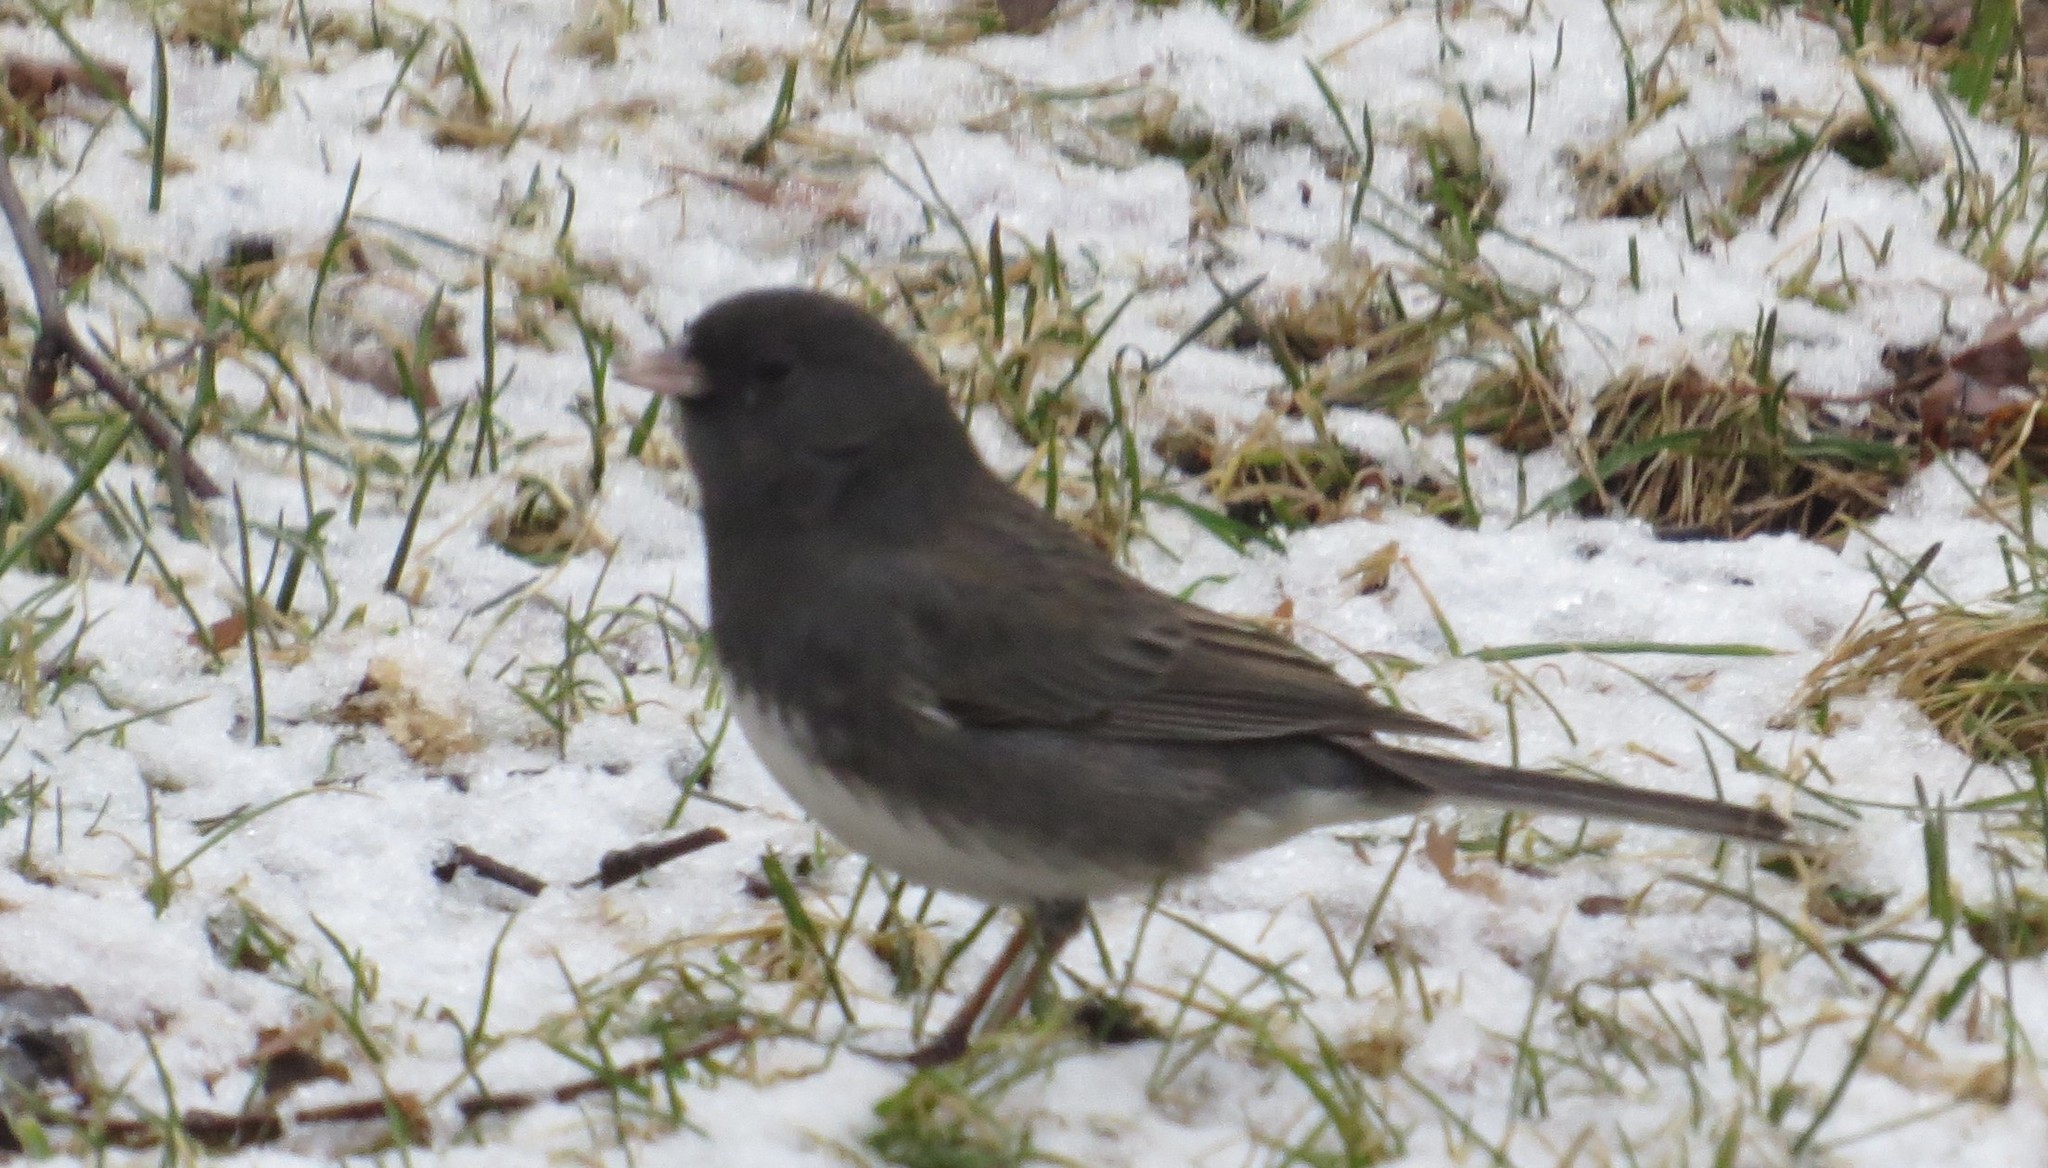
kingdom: Animalia
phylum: Chordata
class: Aves
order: Passeriformes
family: Passerellidae
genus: Junco
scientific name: Junco hyemalis
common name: Dark-eyed junco
